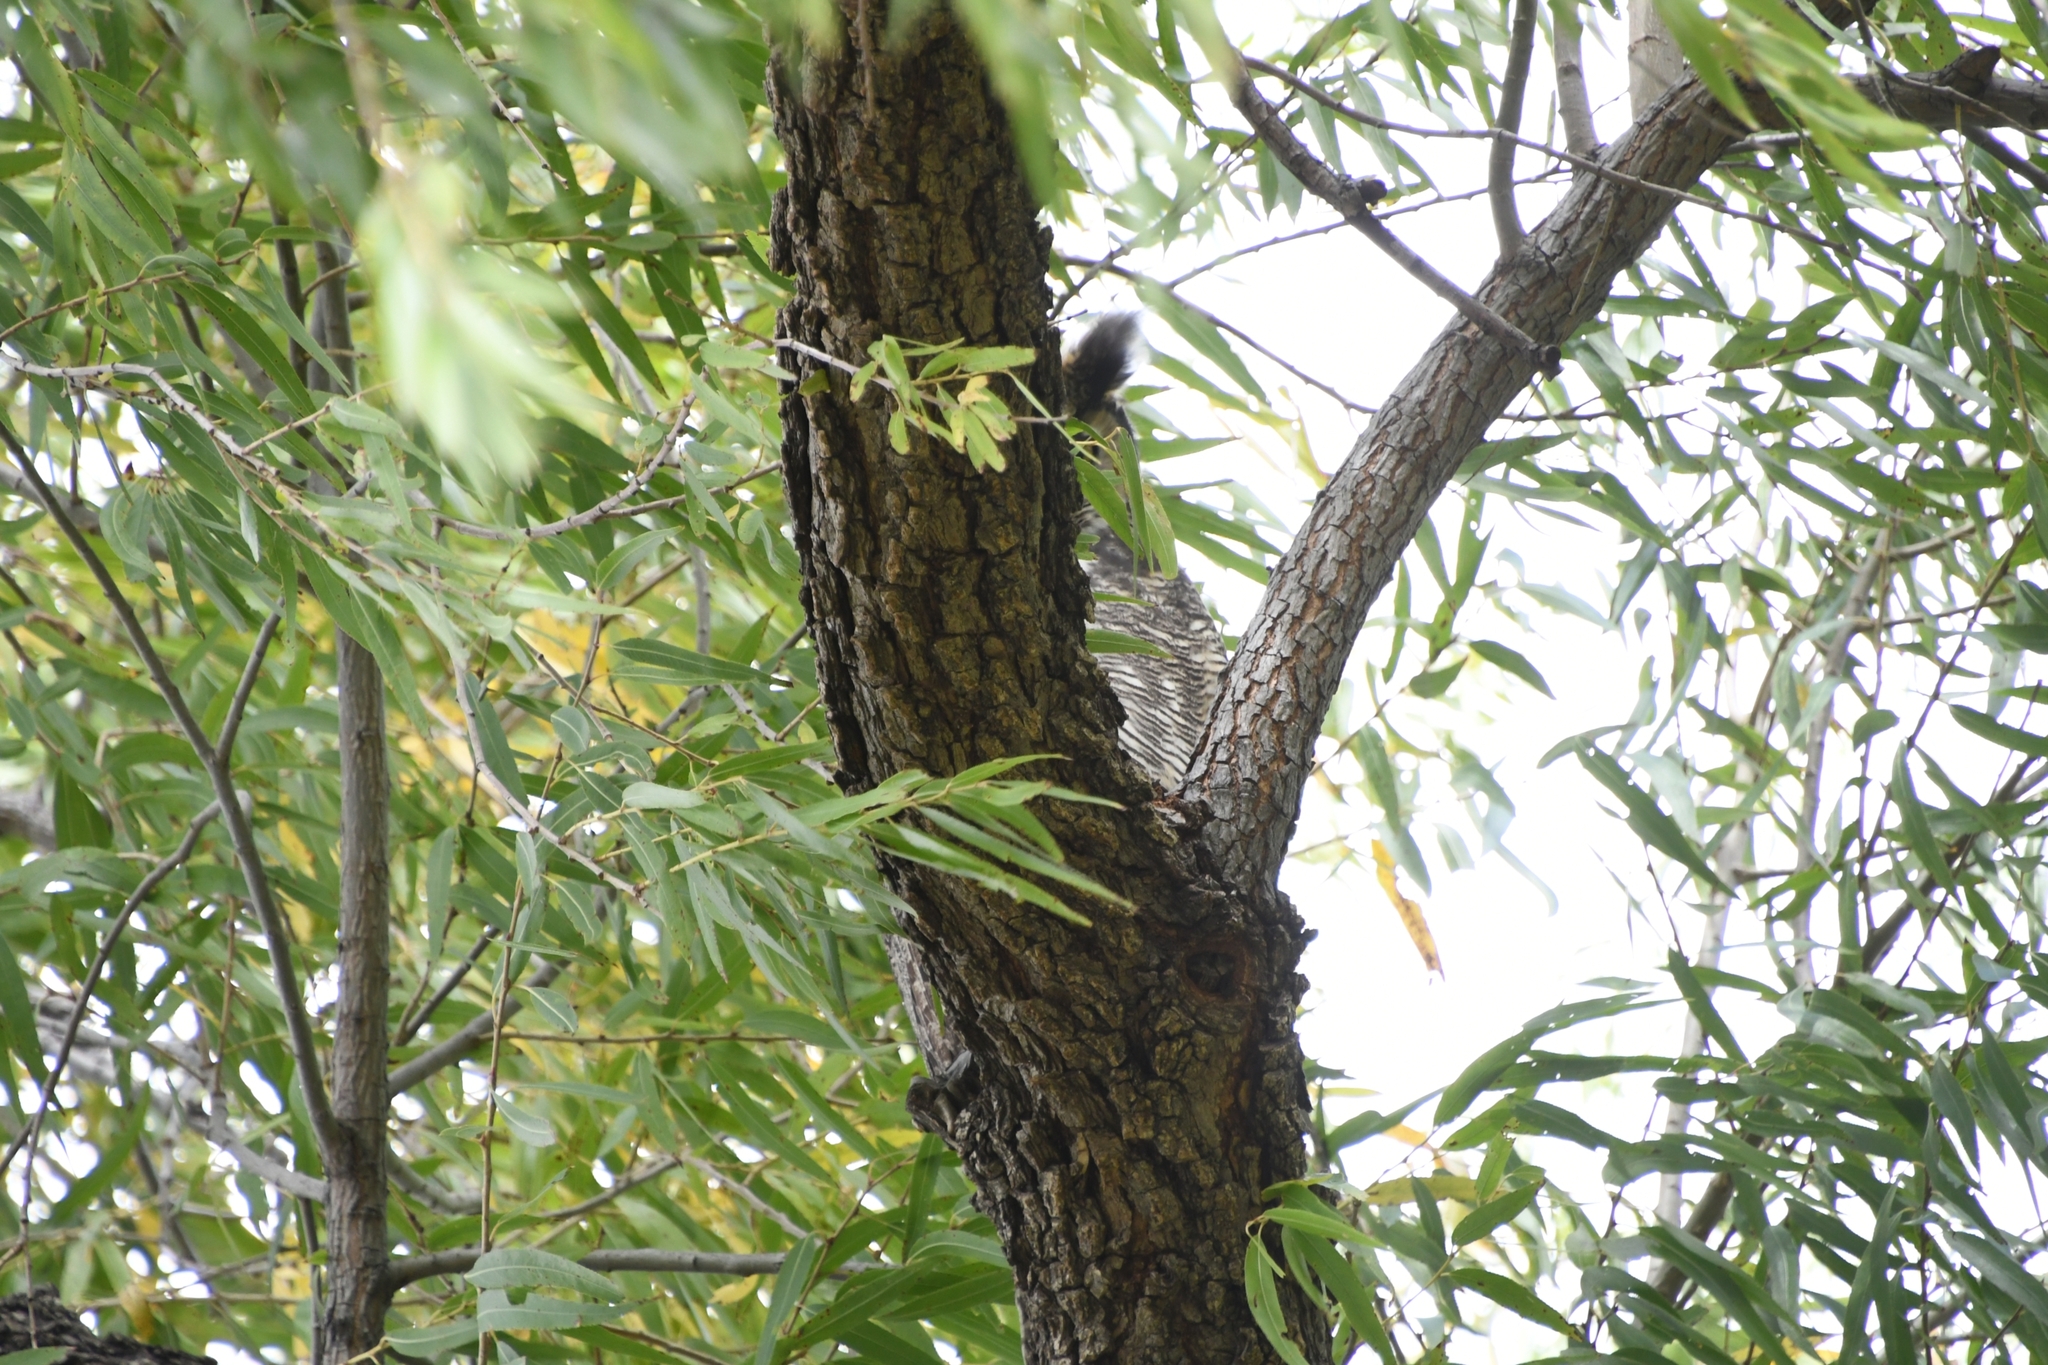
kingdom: Animalia
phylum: Chordata
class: Aves
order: Strigiformes
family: Strigidae
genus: Bubo
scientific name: Bubo virginianus
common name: Great horned owl
